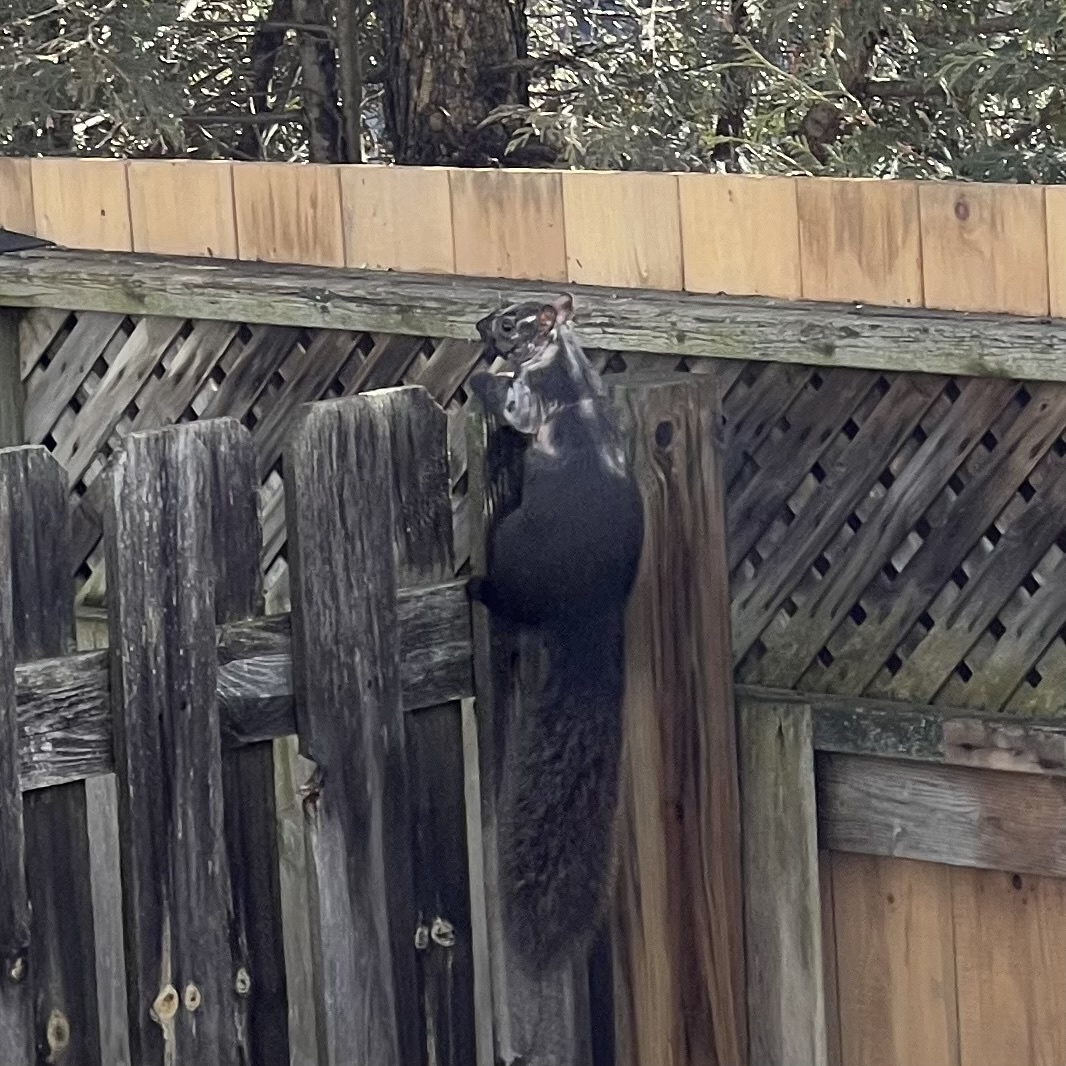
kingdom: Animalia
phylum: Chordata
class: Mammalia
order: Rodentia
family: Sciuridae
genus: Sciurus
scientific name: Sciurus carolinensis
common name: Eastern gray squirrel
